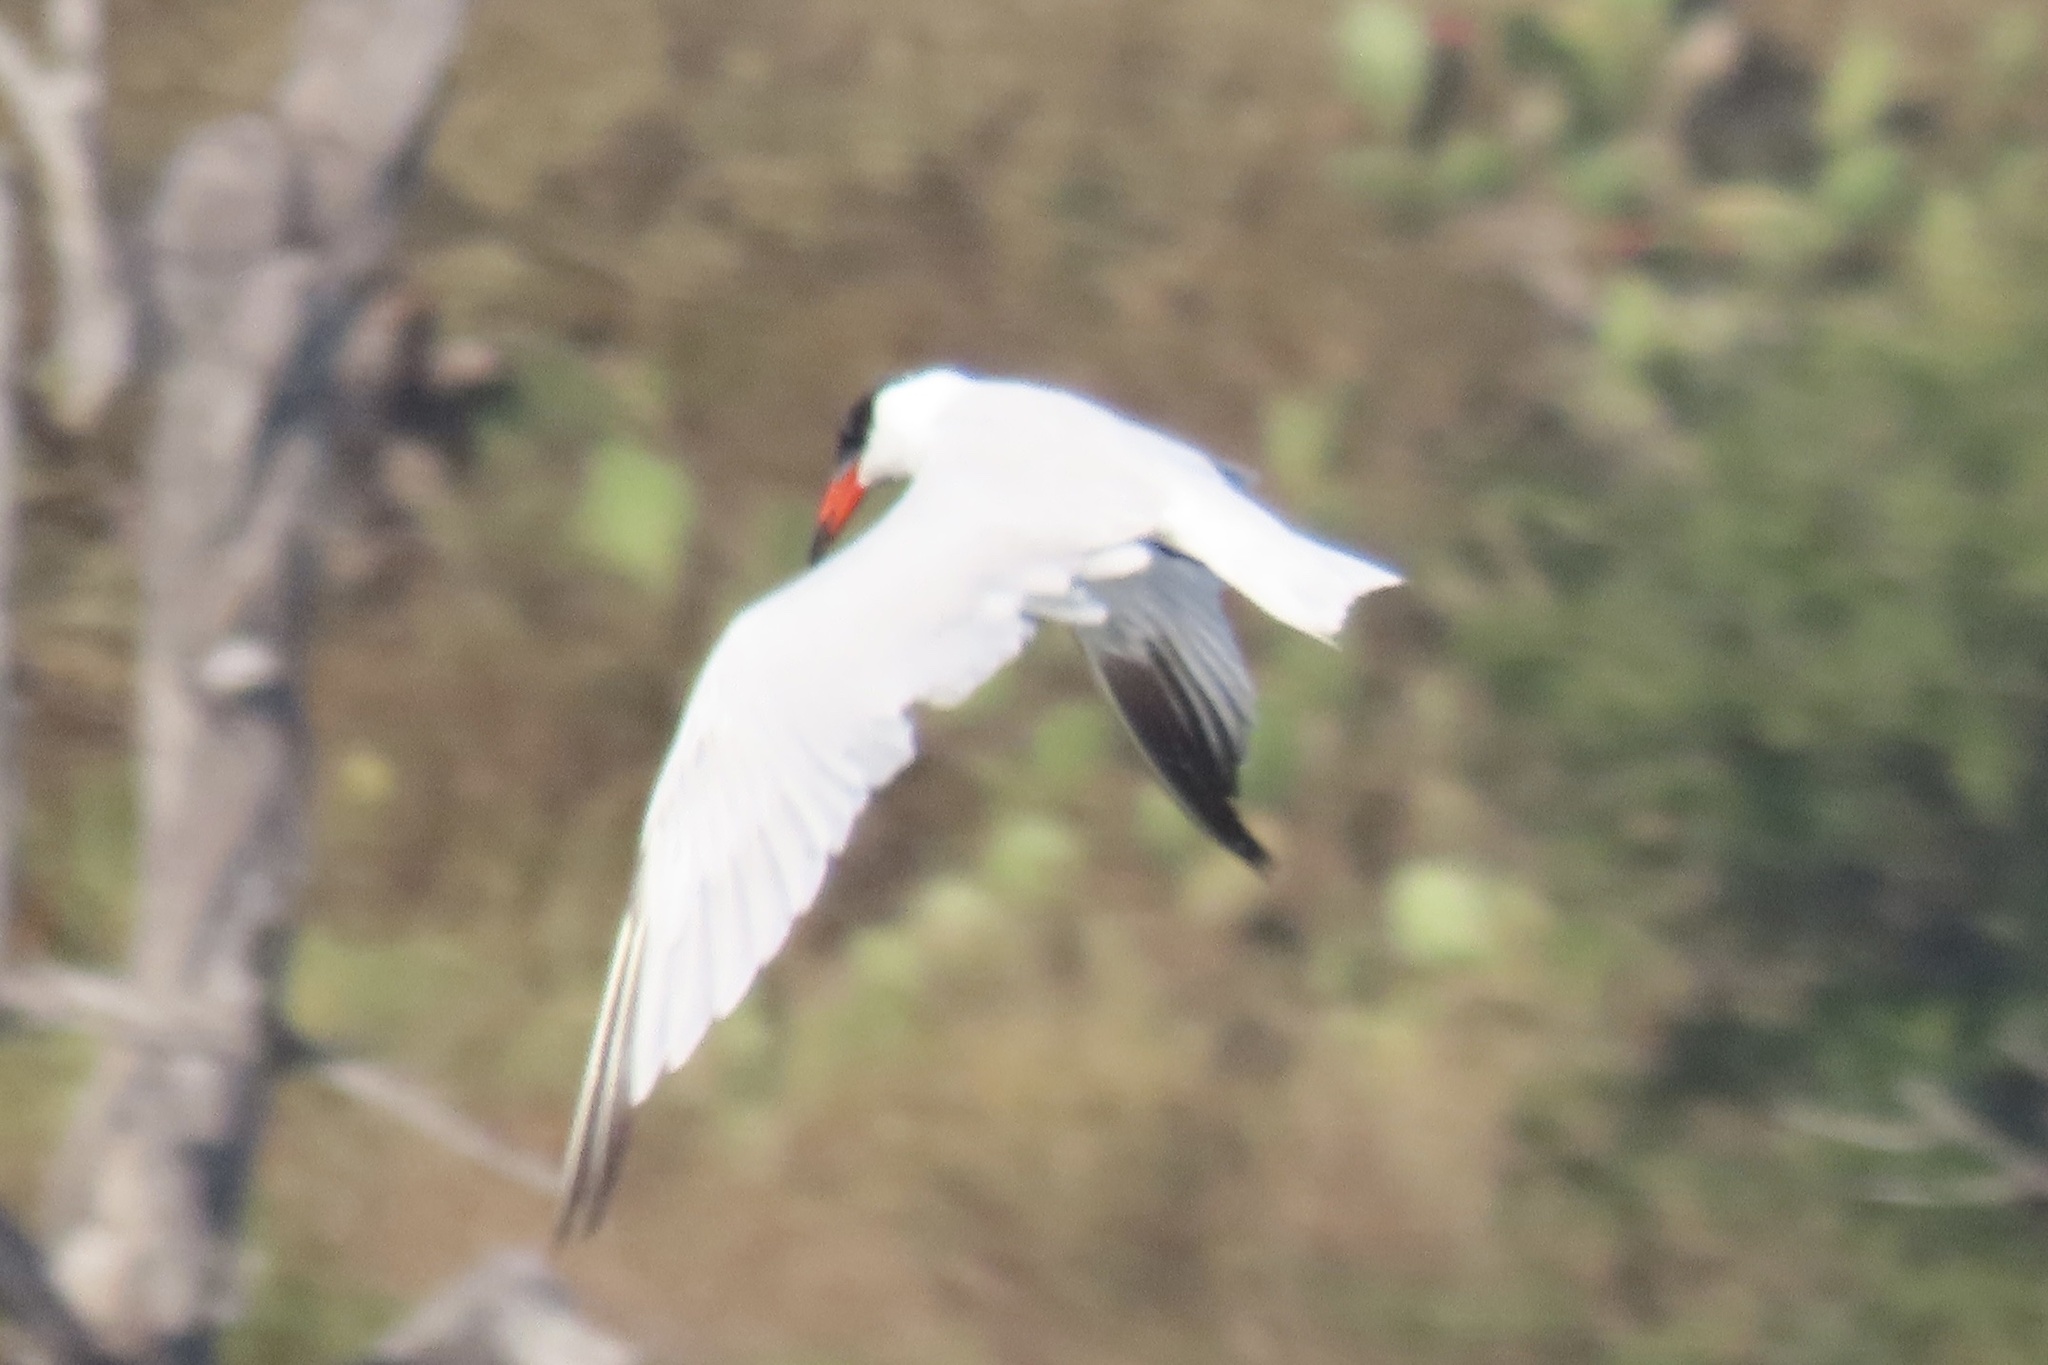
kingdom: Animalia
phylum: Chordata
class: Aves
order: Charadriiformes
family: Laridae
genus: Hydroprogne
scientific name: Hydroprogne caspia
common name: Caspian tern
